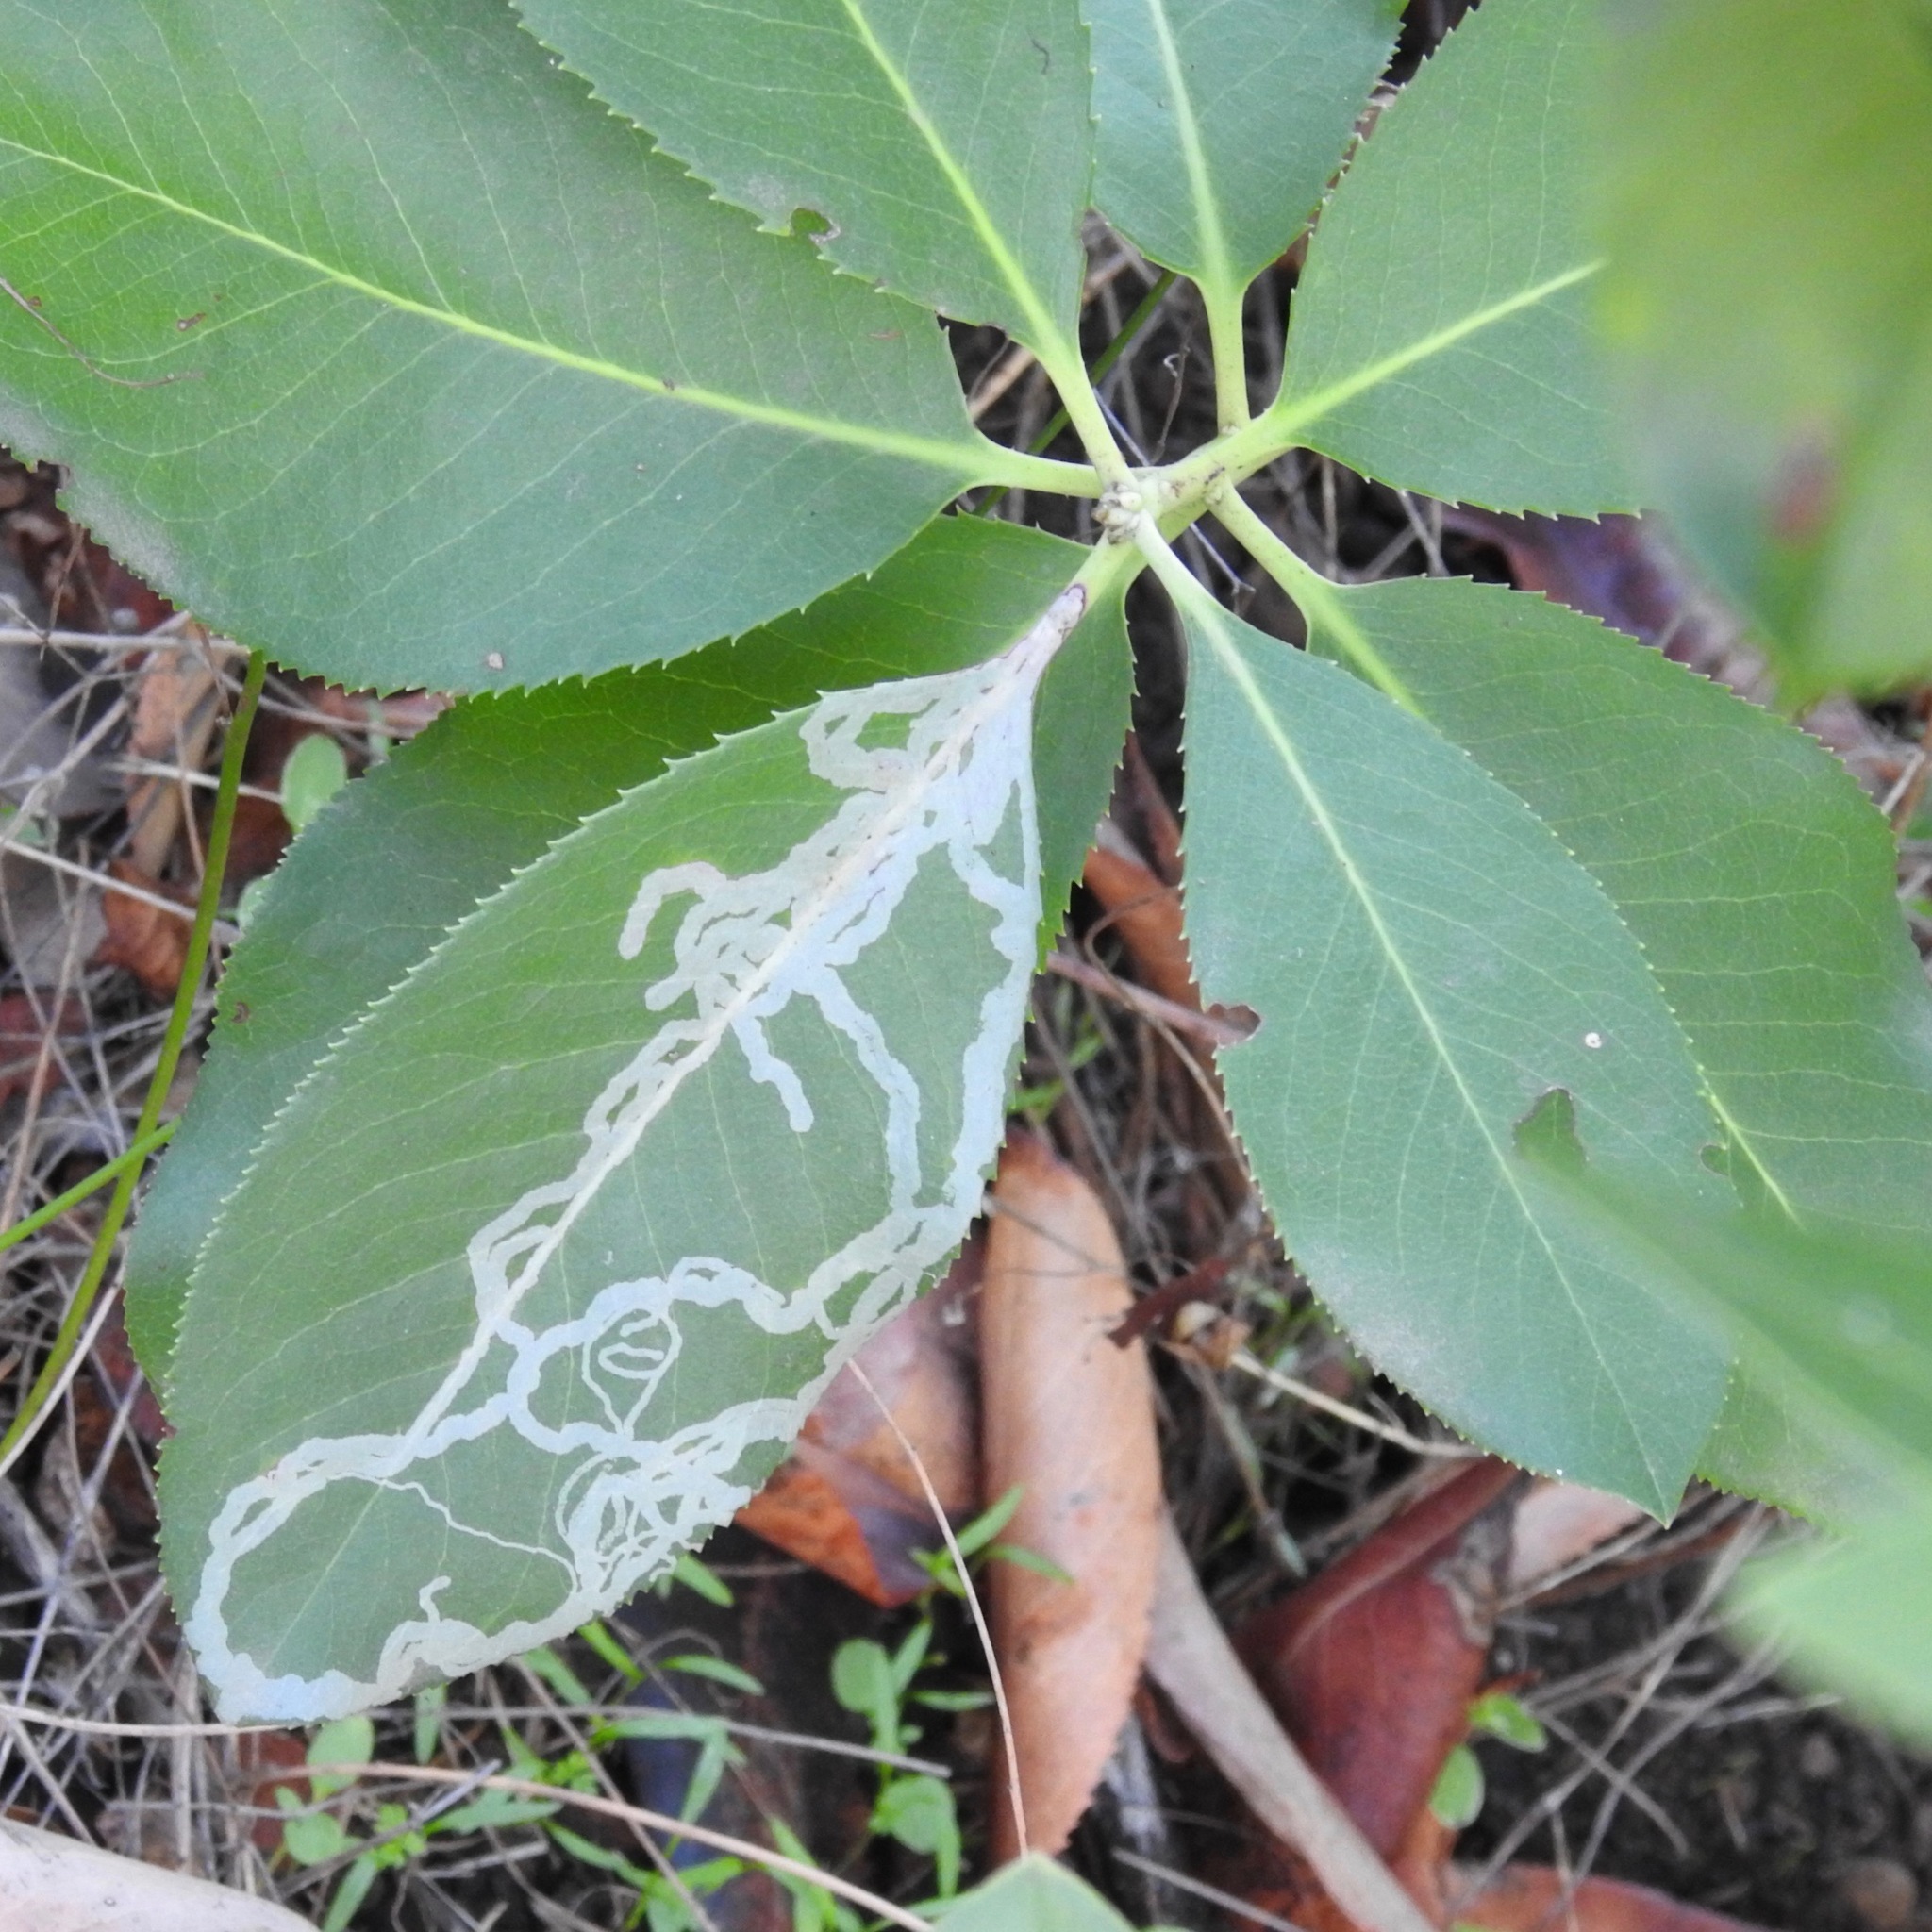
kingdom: Animalia
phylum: Arthropoda
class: Insecta
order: Lepidoptera
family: Gracillariidae
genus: Marmara
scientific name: Marmara arbutiella
